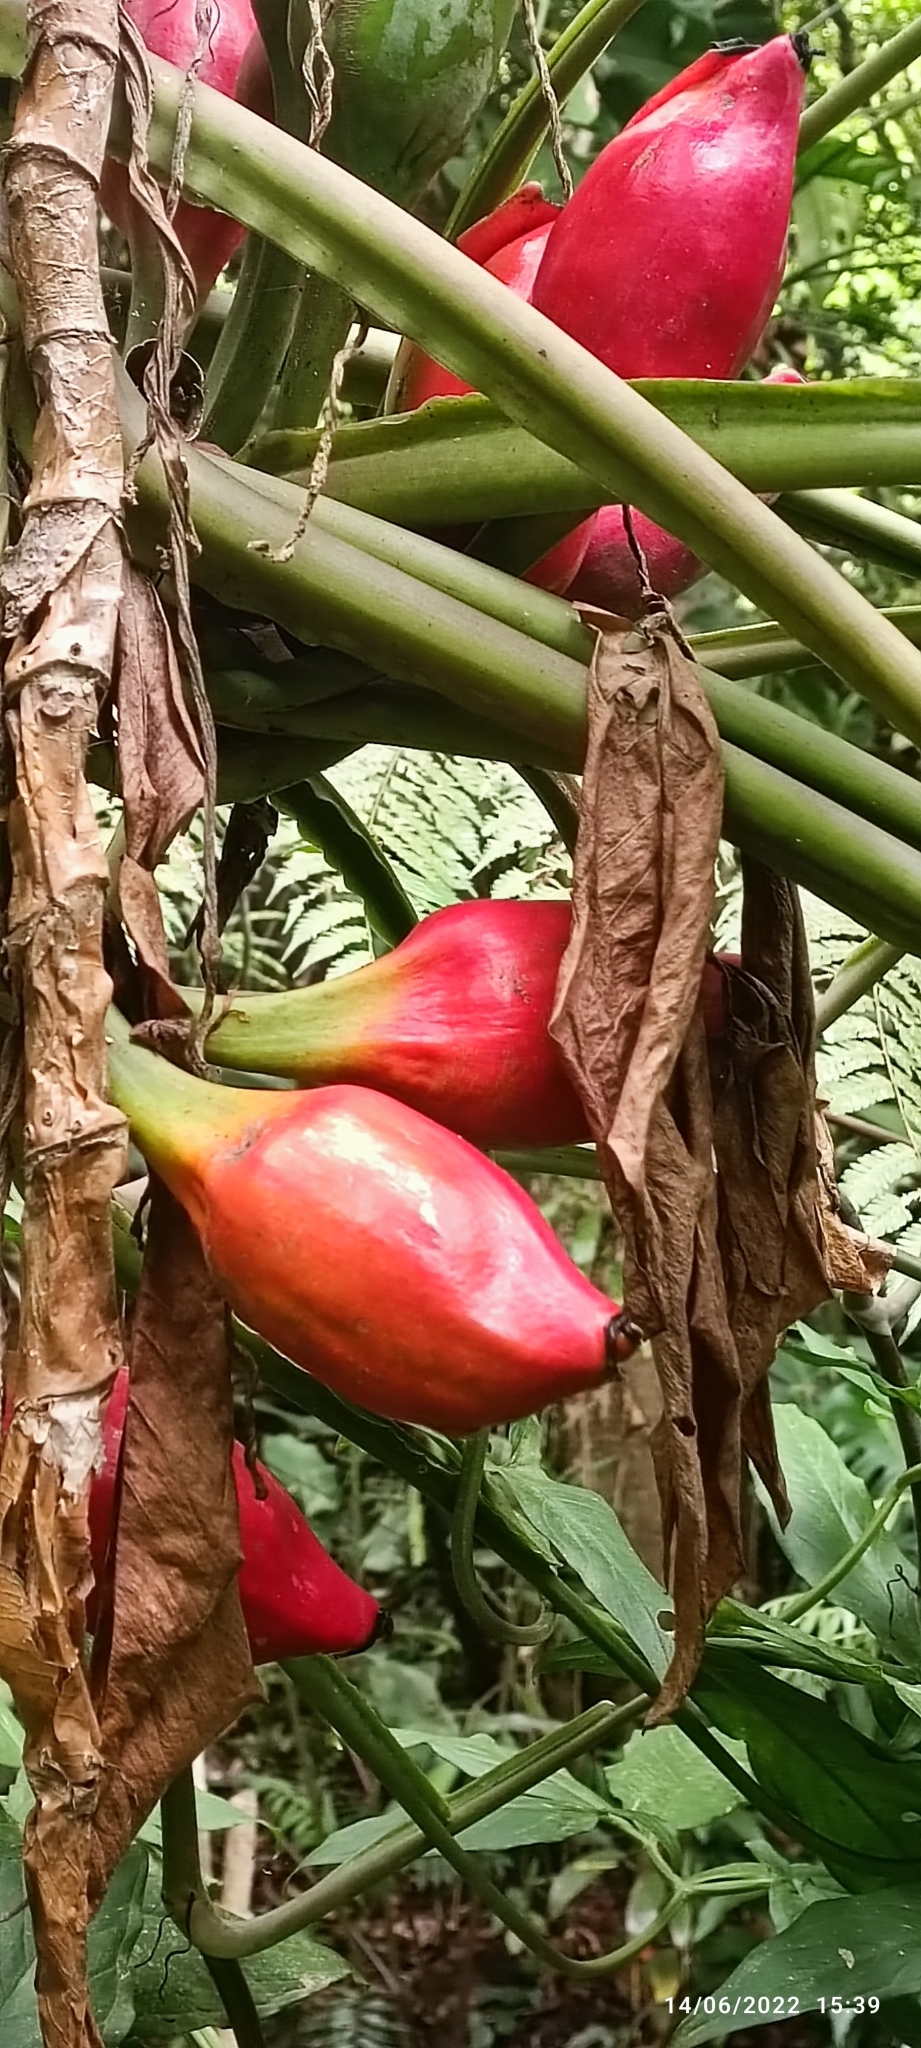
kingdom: Plantae
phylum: Tracheophyta
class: Liliopsida
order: Alismatales
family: Araceae
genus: Syngonium
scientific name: Syngonium podophyllum
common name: American evergreen
